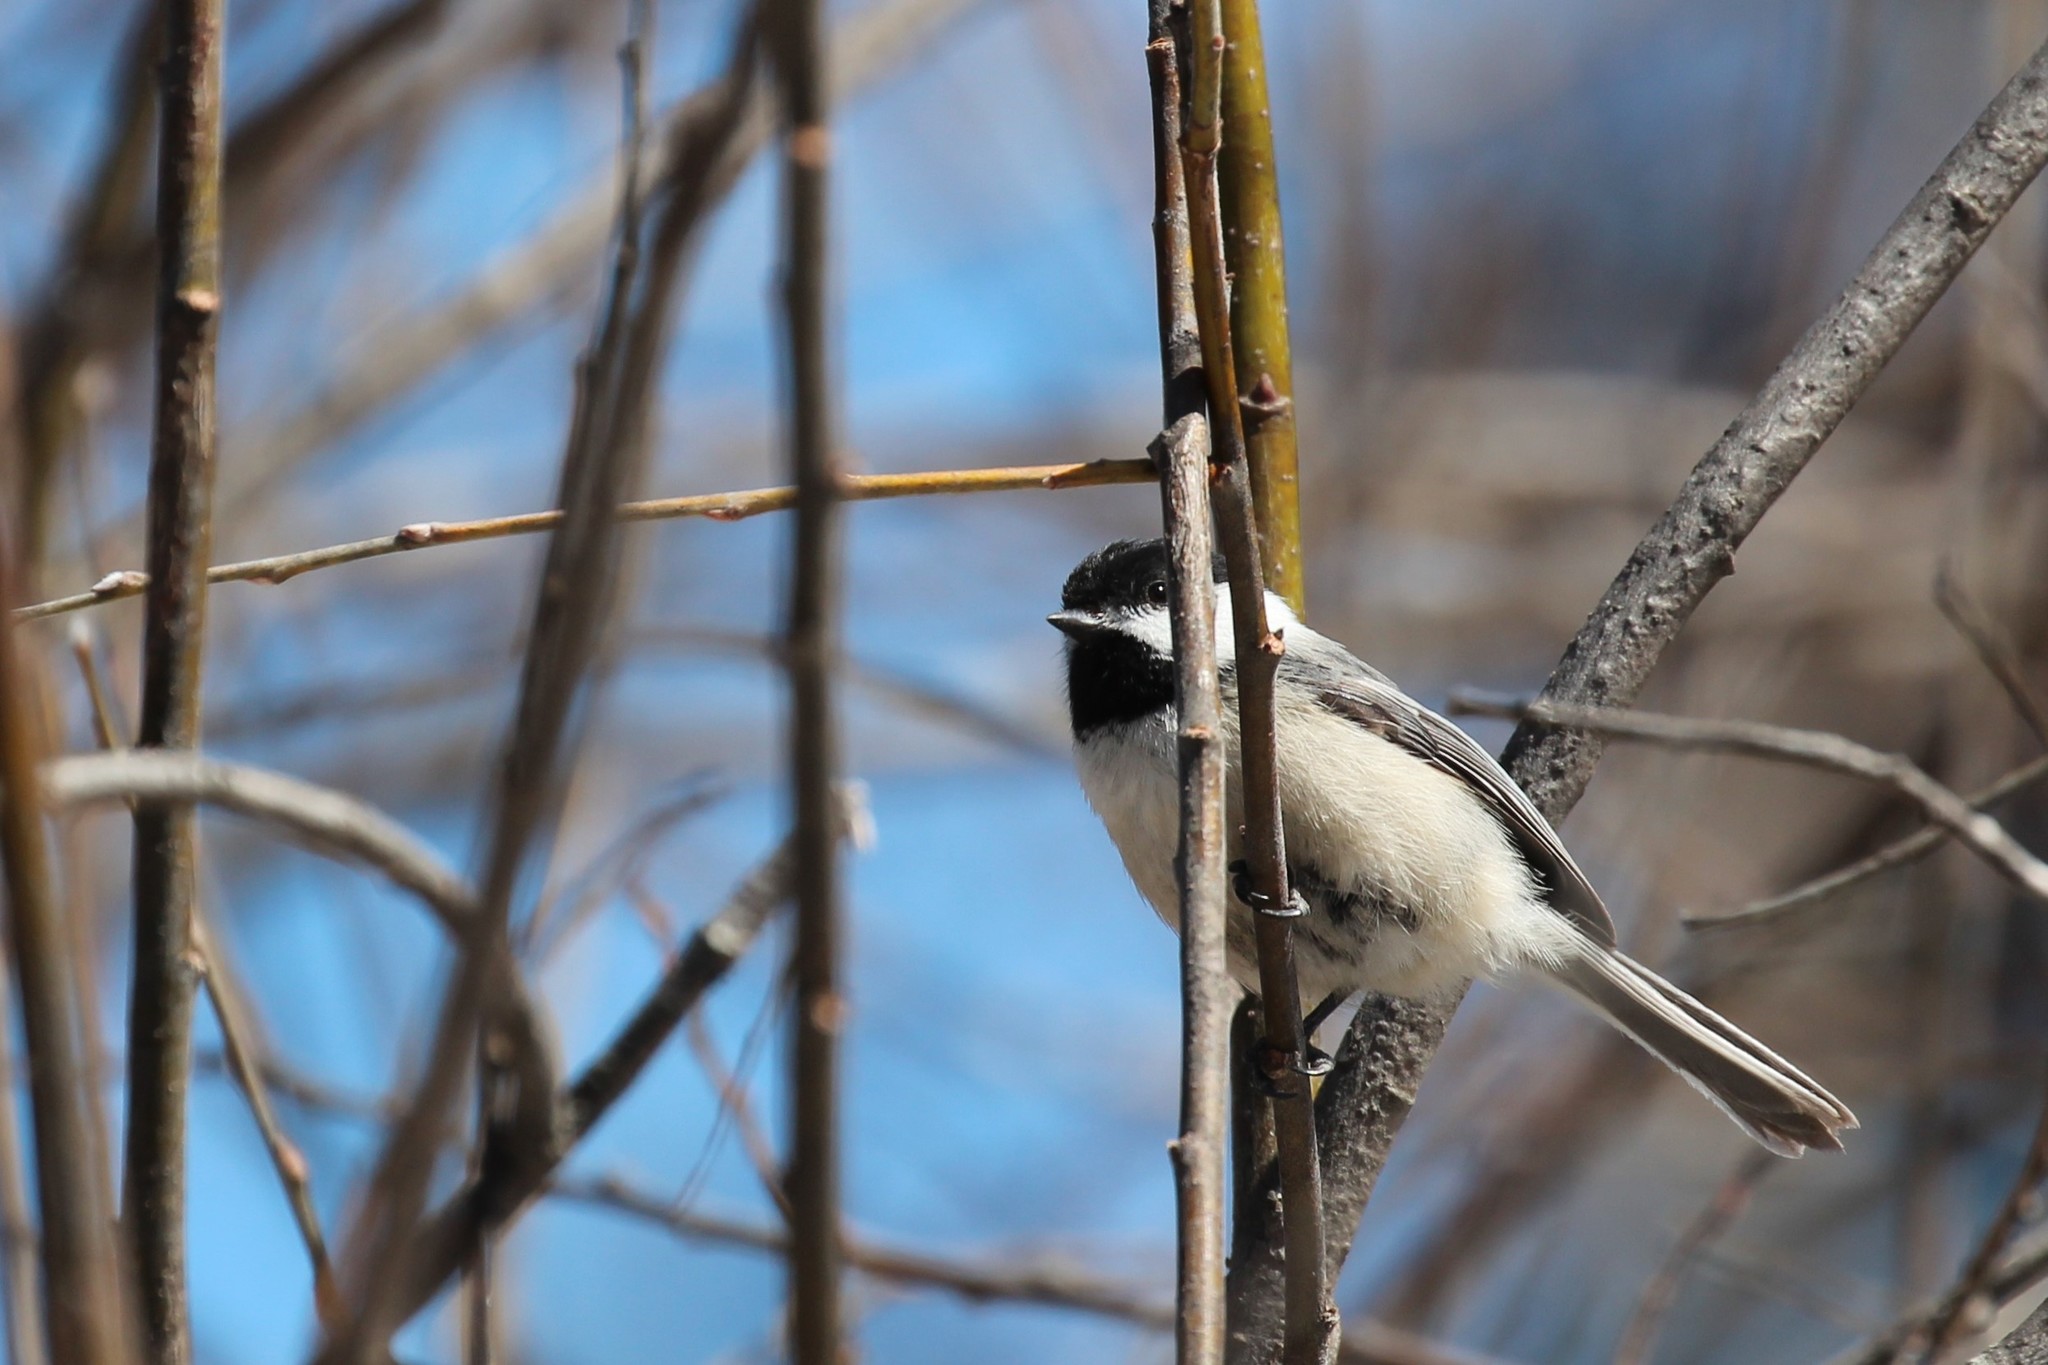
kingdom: Animalia
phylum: Chordata
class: Aves
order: Passeriformes
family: Paridae
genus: Poecile
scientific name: Poecile atricapillus
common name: Black-capped chickadee
